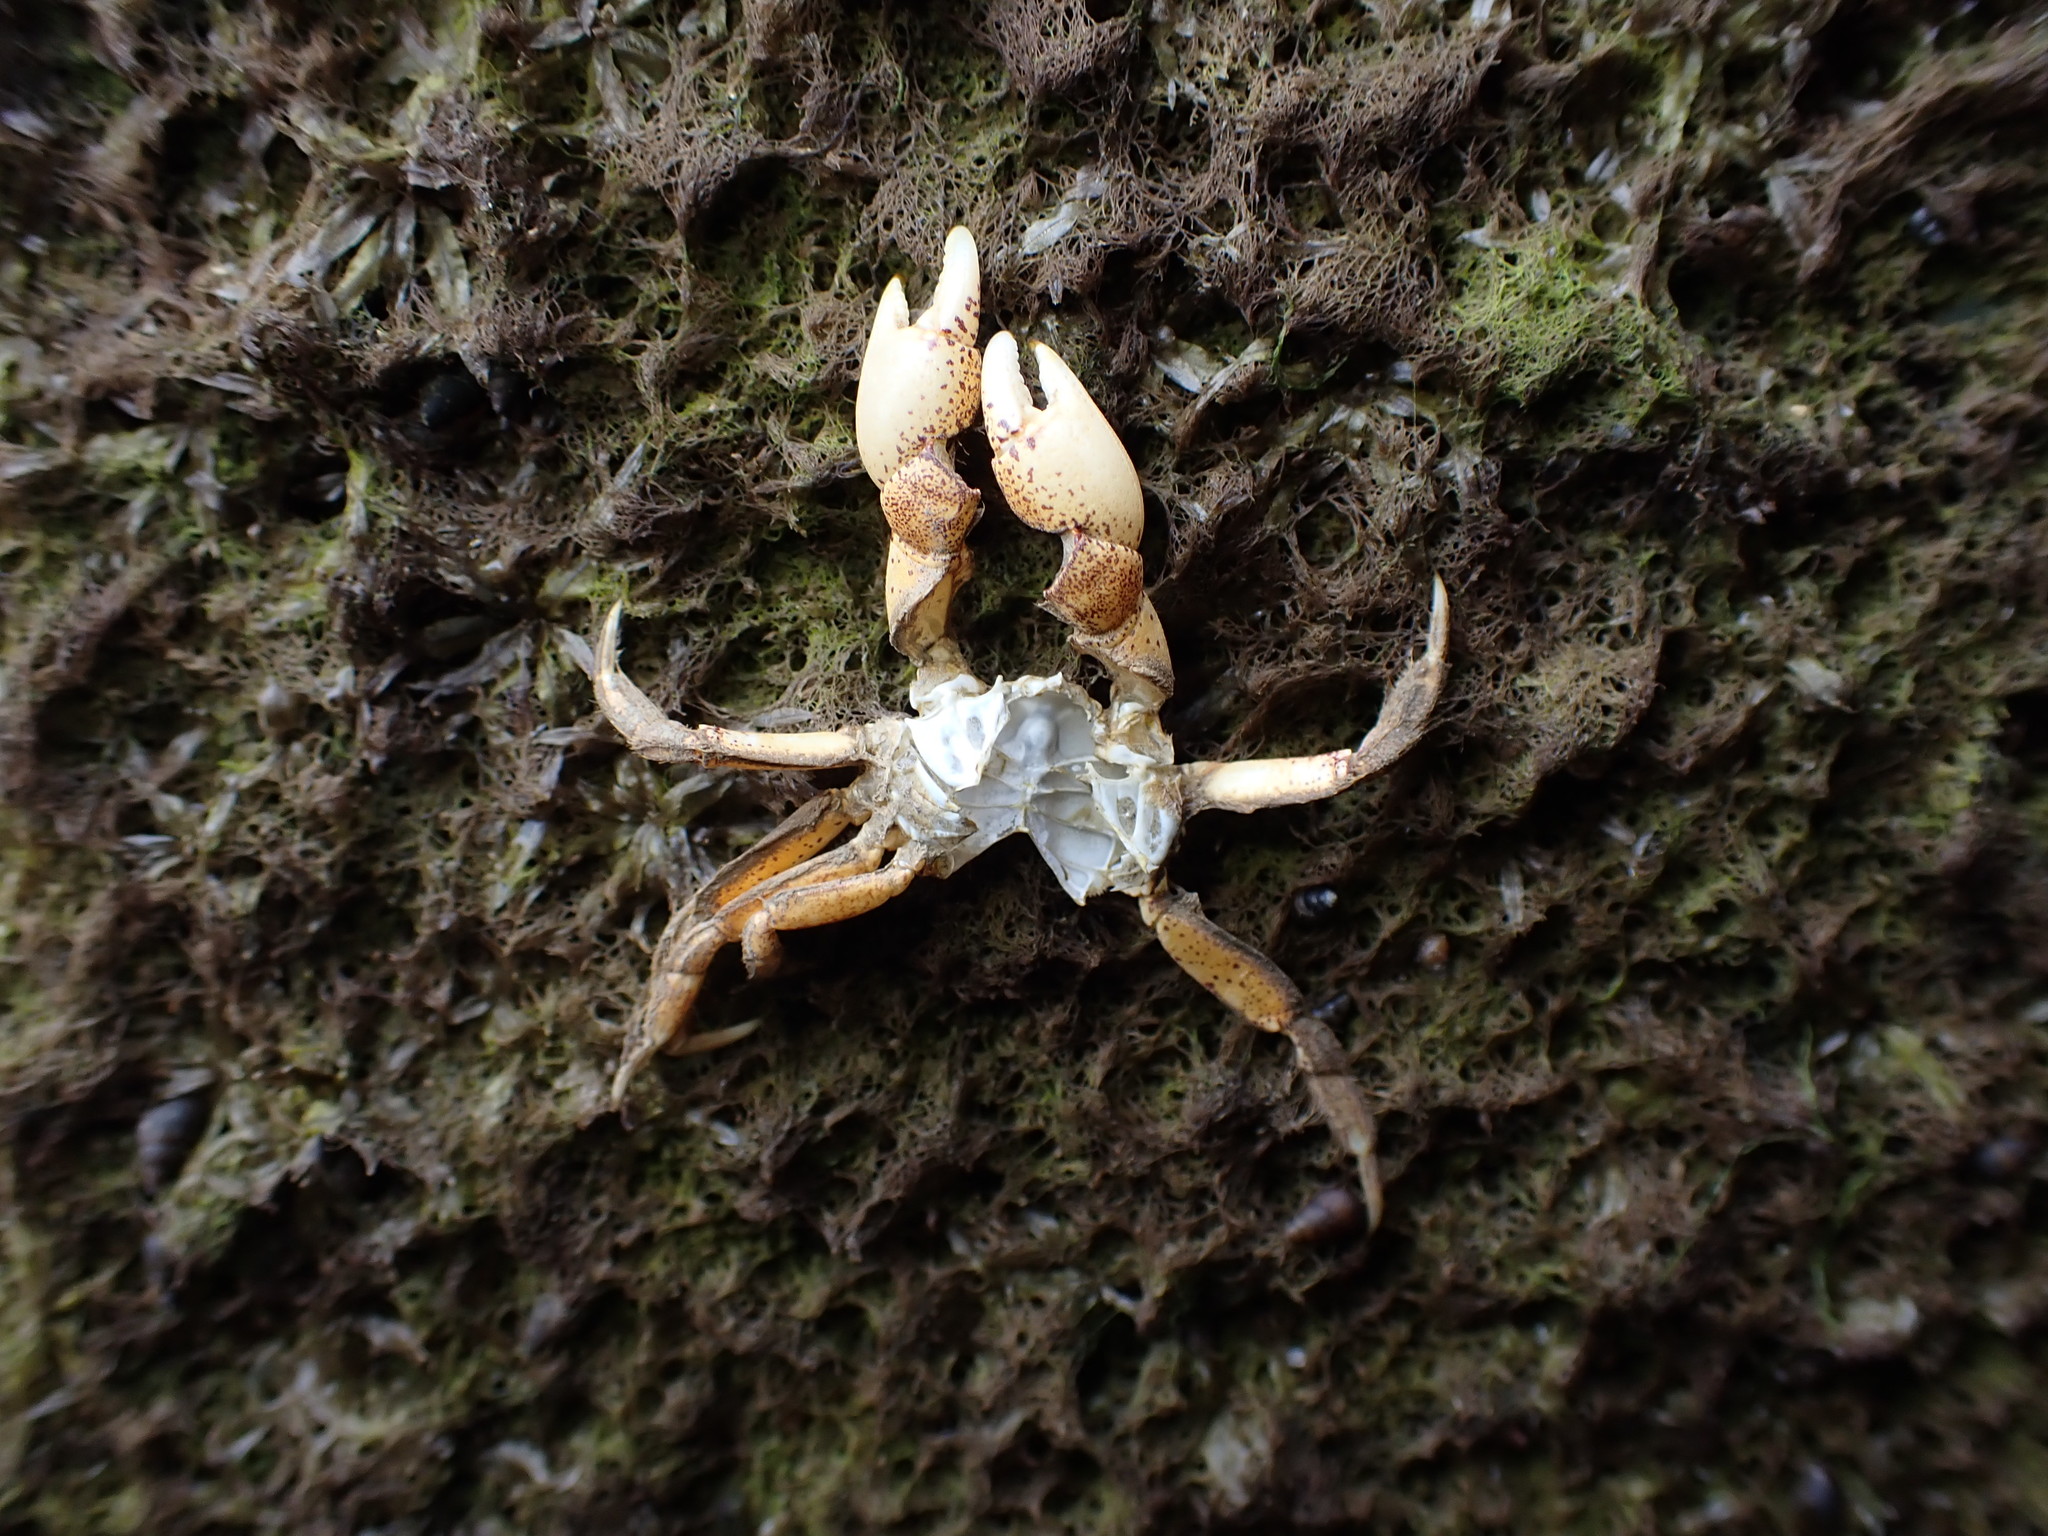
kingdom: Animalia
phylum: Arthropoda
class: Malacostraca
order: Decapoda
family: Varunidae
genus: Hemigrapsus
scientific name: Hemigrapsus crenulatus
